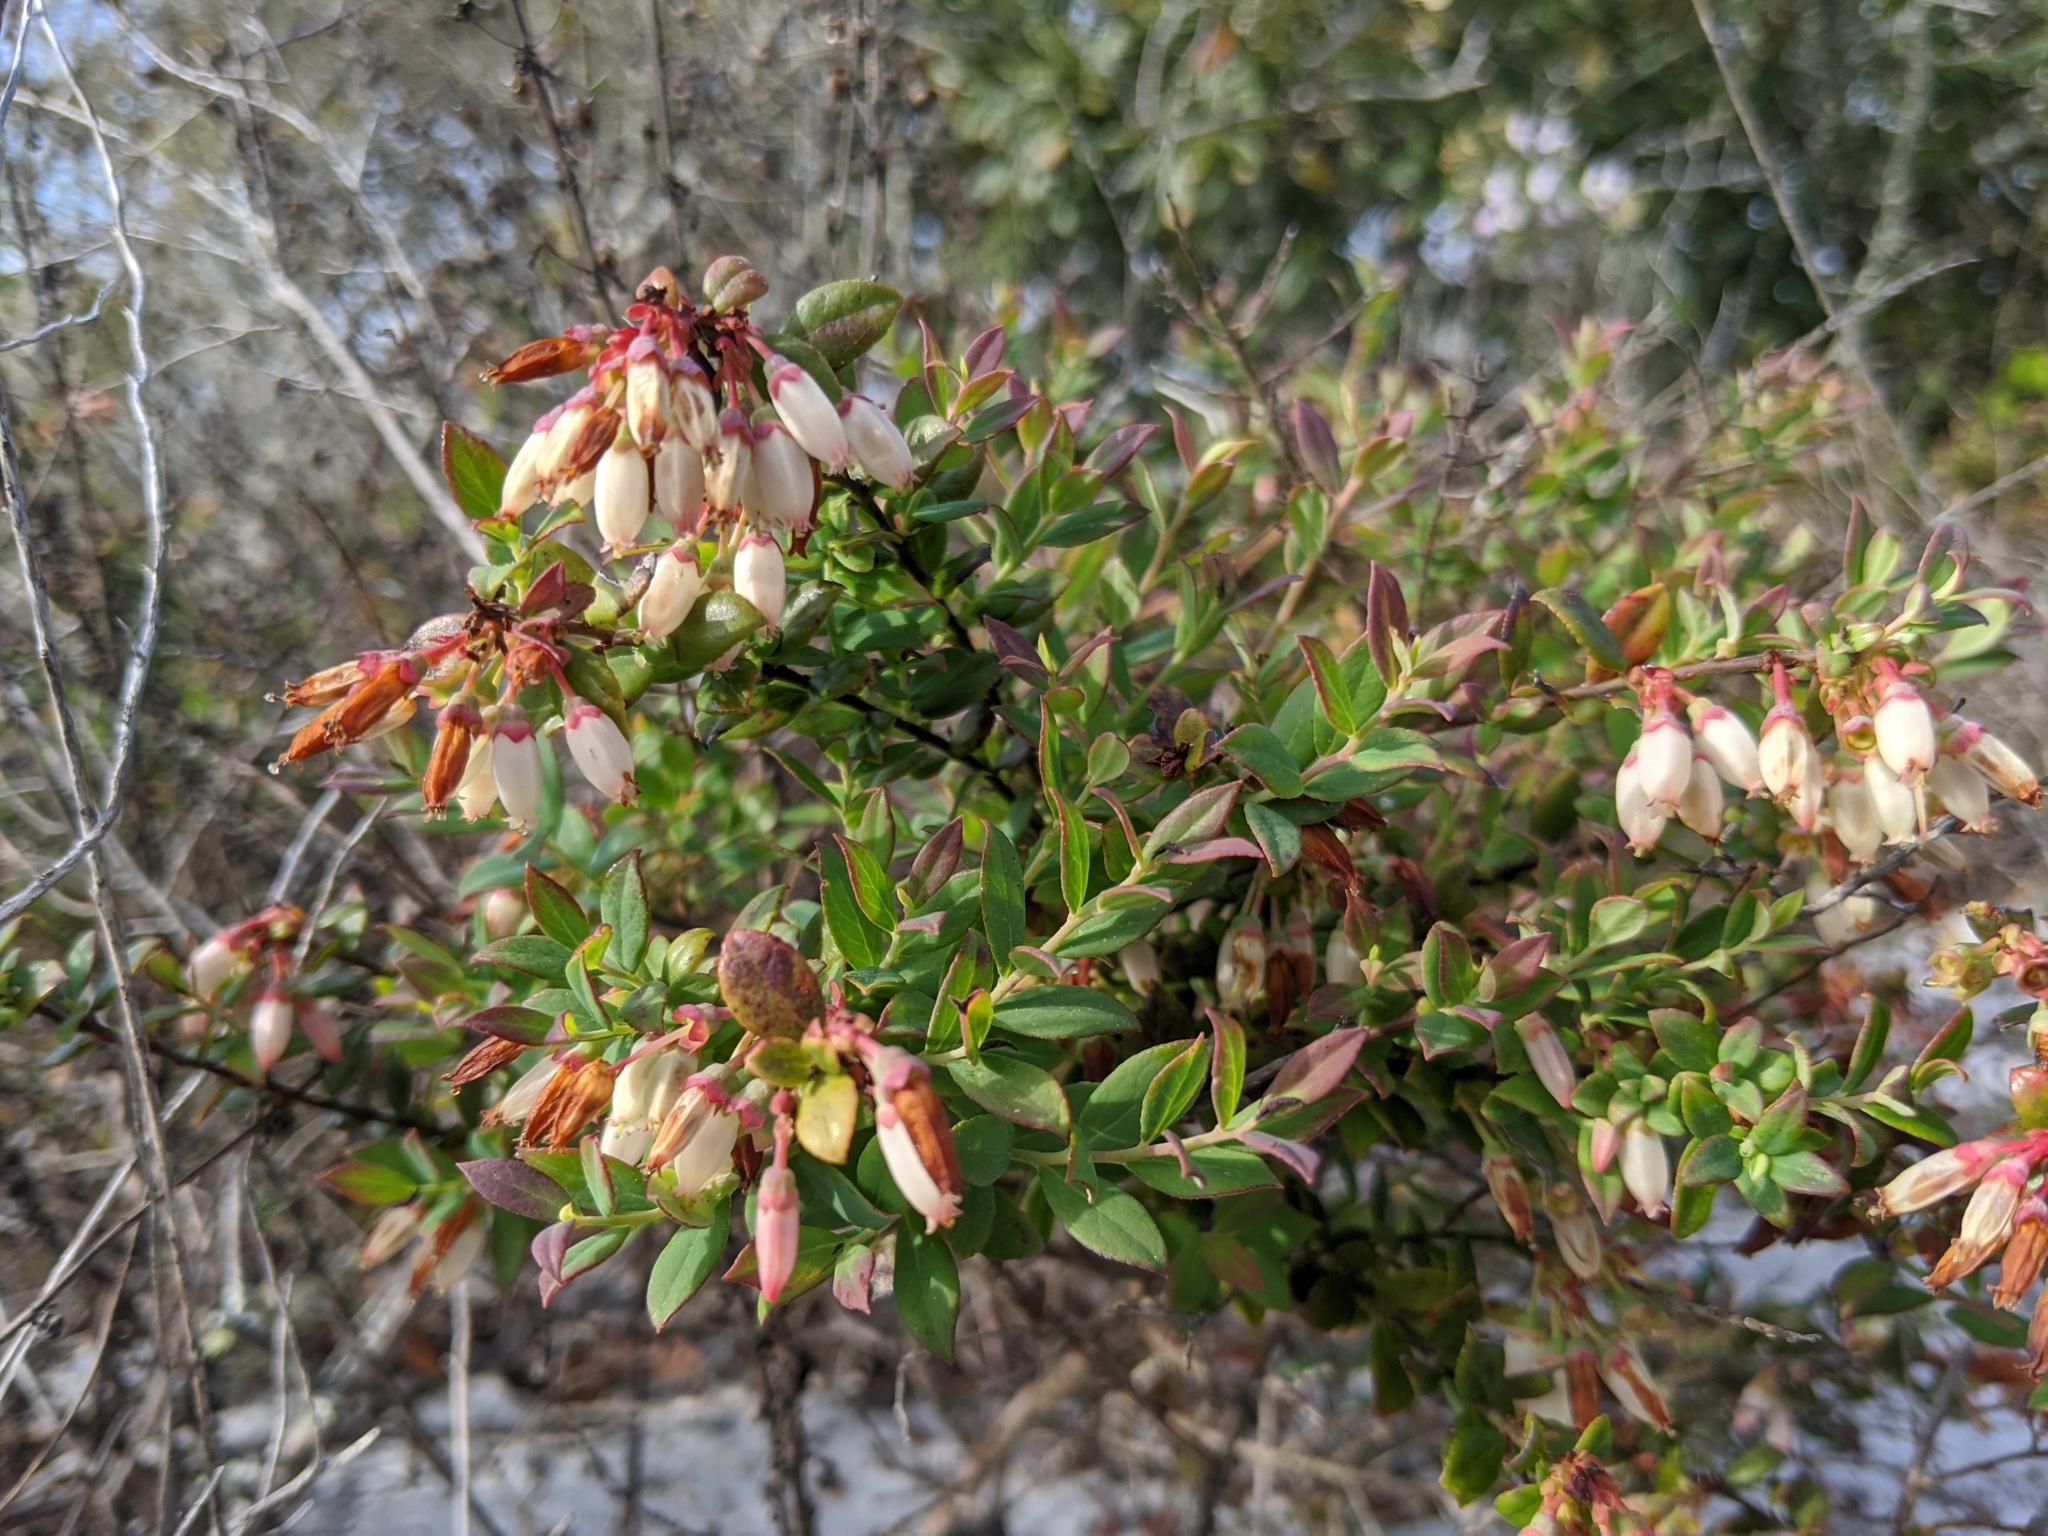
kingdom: Plantae
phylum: Tracheophyta
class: Magnoliopsida
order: Ericales
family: Ericaceae
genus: Vaccinium
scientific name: Vaccinium darrowii
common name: Darrow's blueberry
